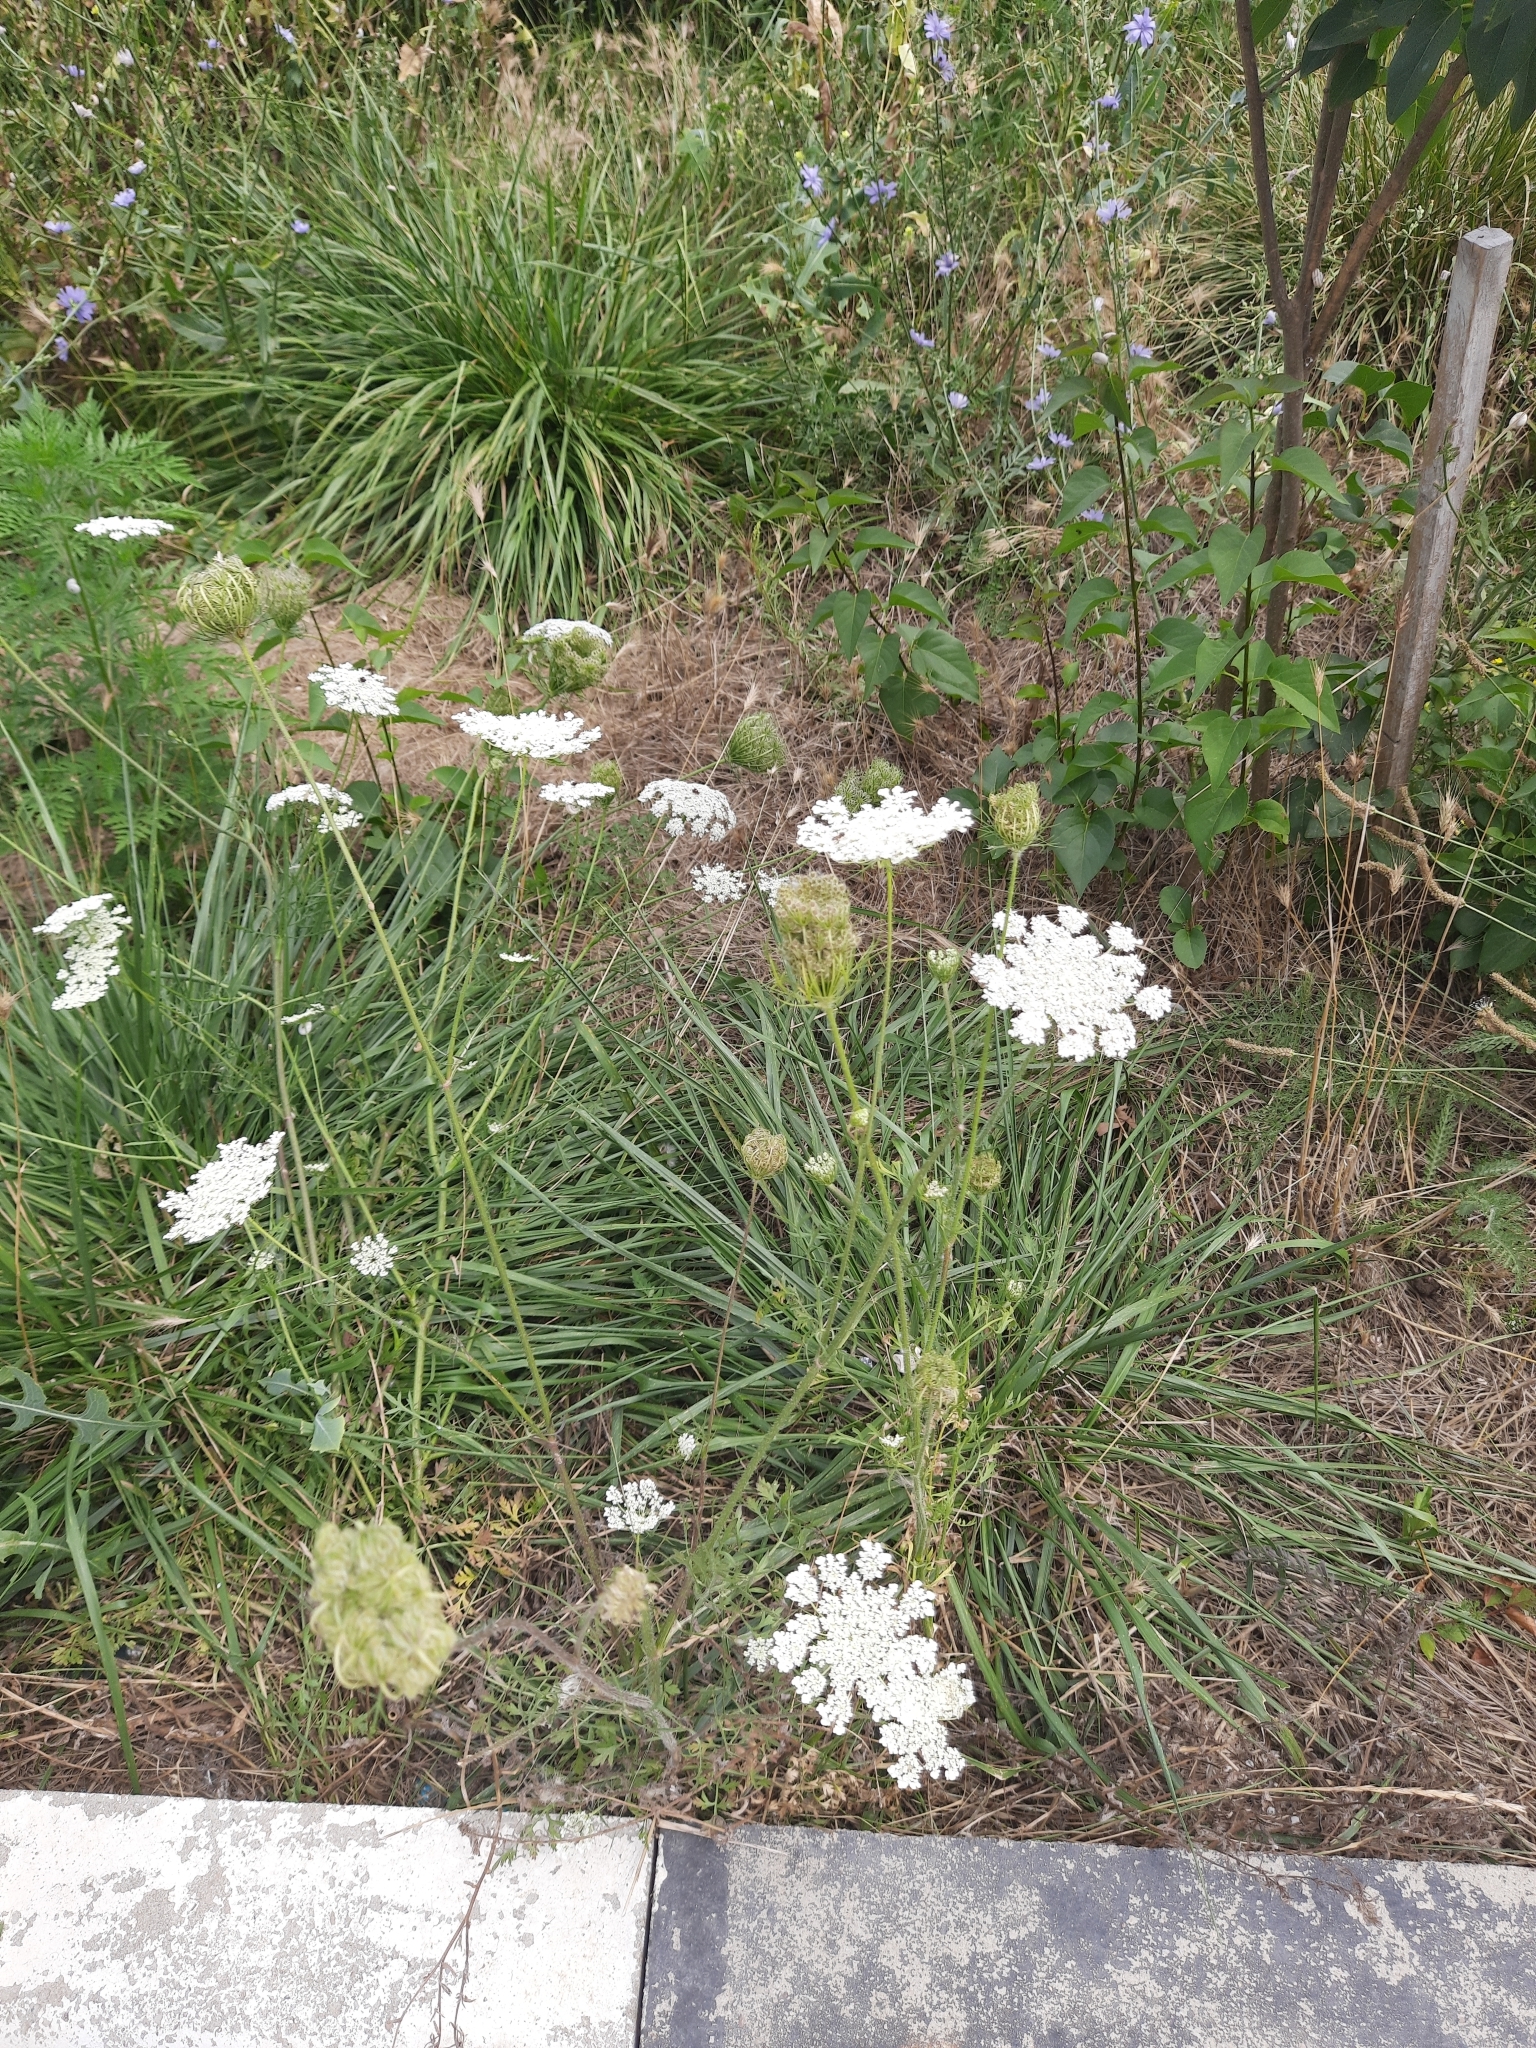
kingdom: Plantae
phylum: Tracheophyta
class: Magnoliopsida
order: Apiales
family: Apiaceae
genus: Daucus
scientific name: Daucus carota
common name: Wild carrot
